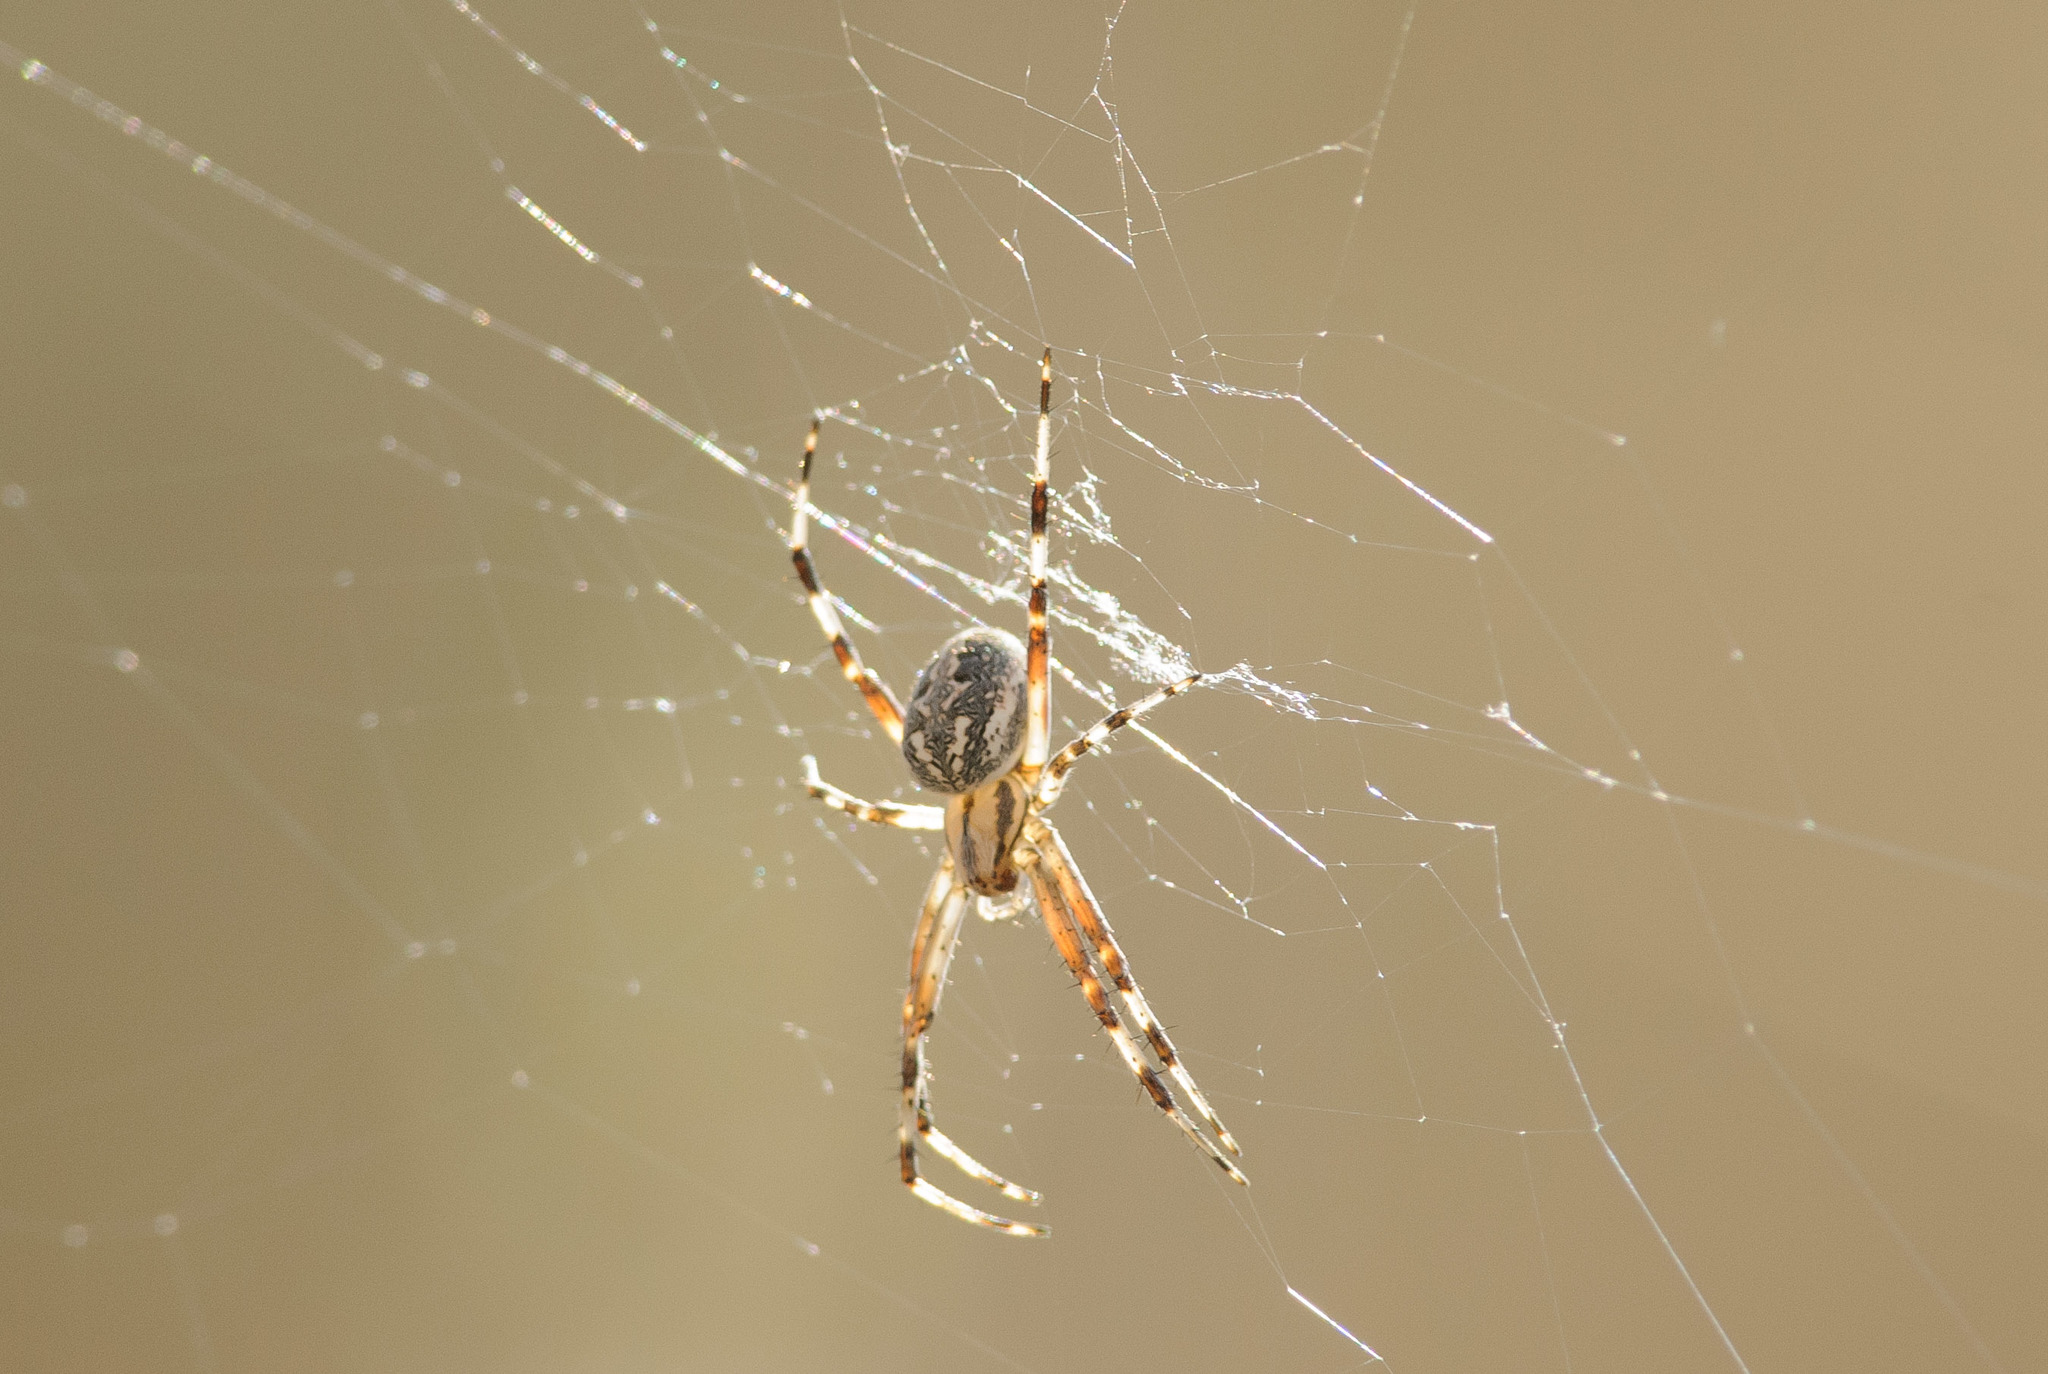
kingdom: Animalia
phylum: Arthropoda
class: Arachnida
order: Araneae
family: Araneidae
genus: Neoscona
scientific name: Neoscona oaxacensis
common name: Orb weavers
